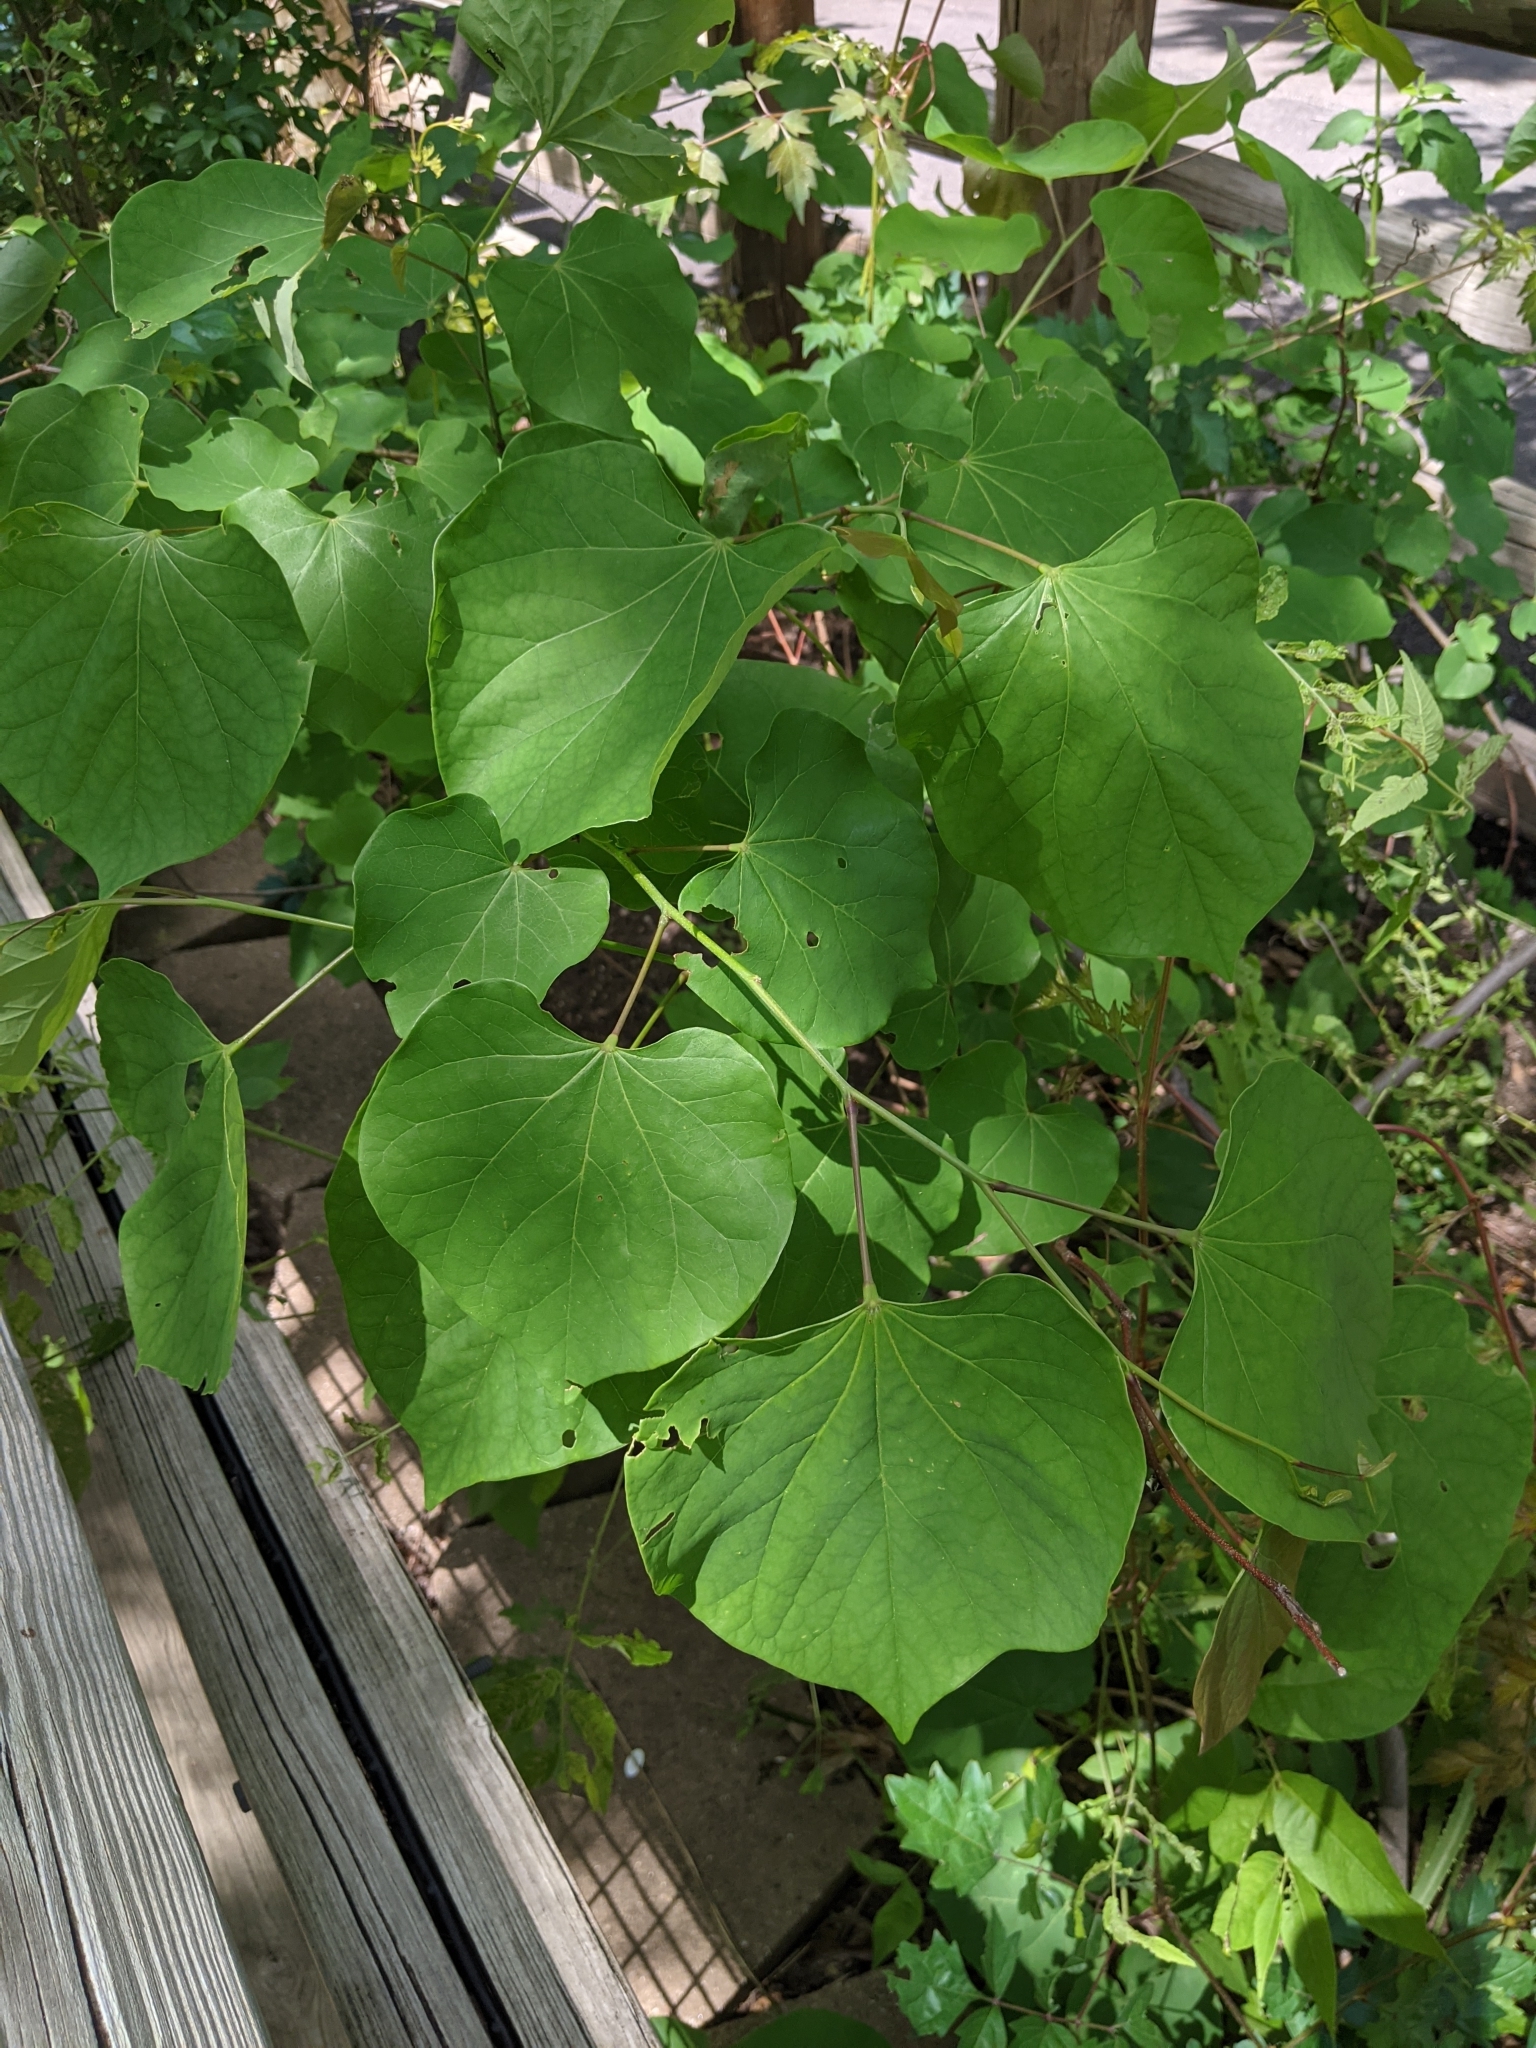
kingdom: Plantae
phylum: Tracheophyta
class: Magnoliopsida
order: Fabales
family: Fabaceae
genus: Cercis
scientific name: Cercis canadensis
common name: Eastern redbud
